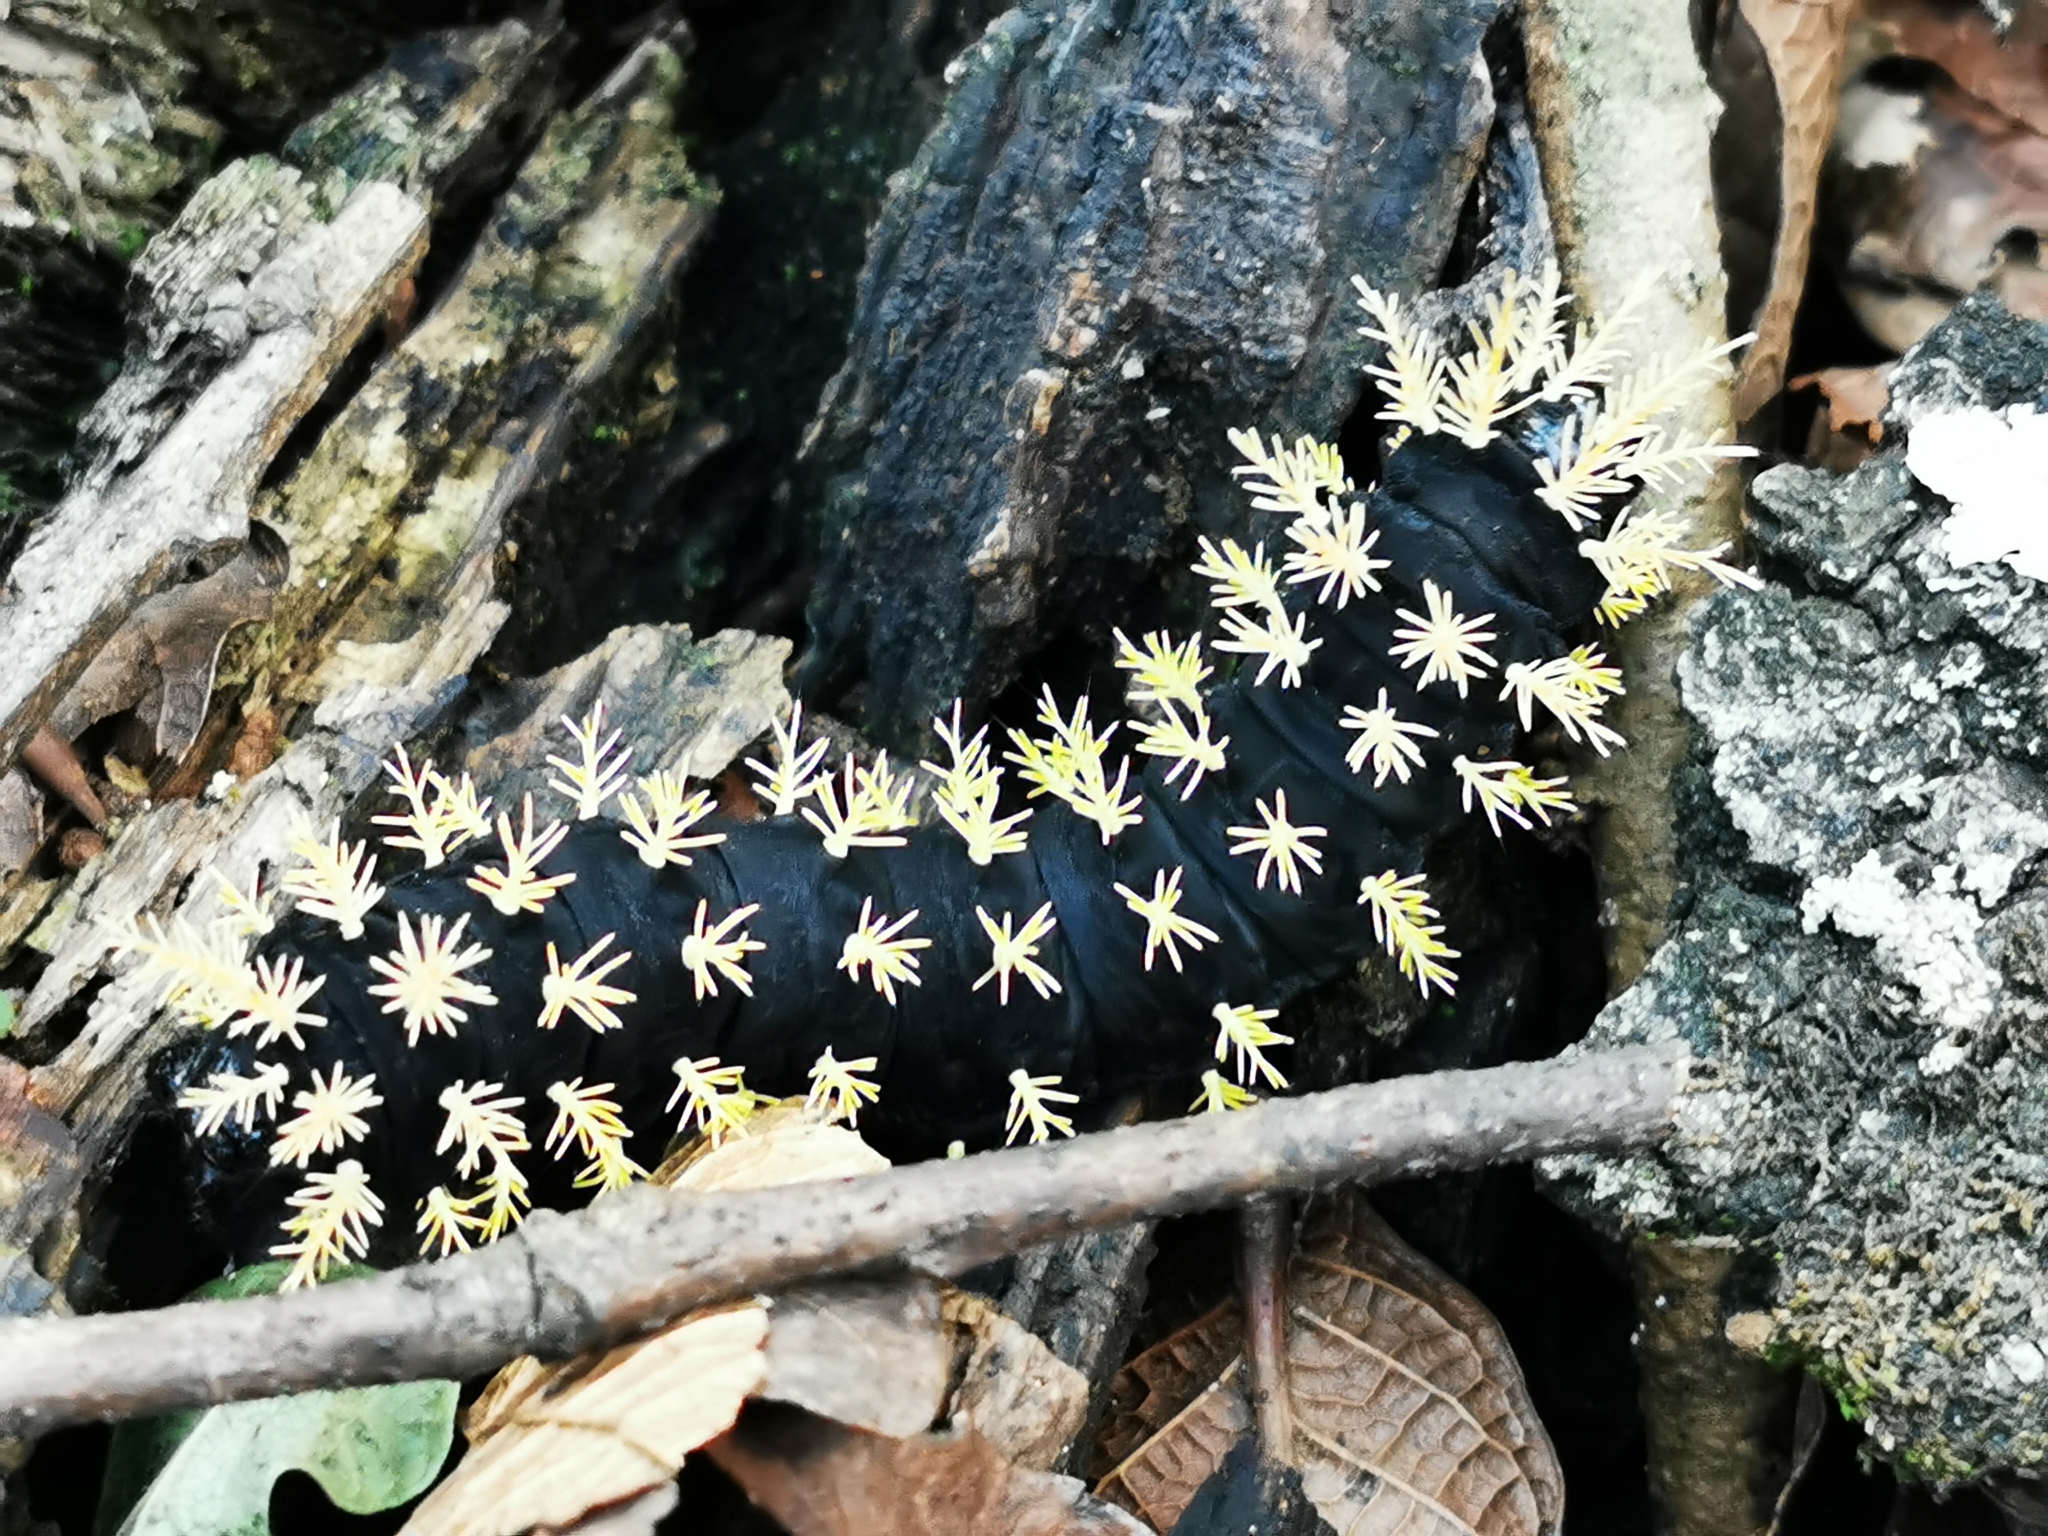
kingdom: Animalia
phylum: Arthropoda
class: Insecta
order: Lepidoptera
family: Saturniidae
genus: Leucanella
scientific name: Leucanella fusca
